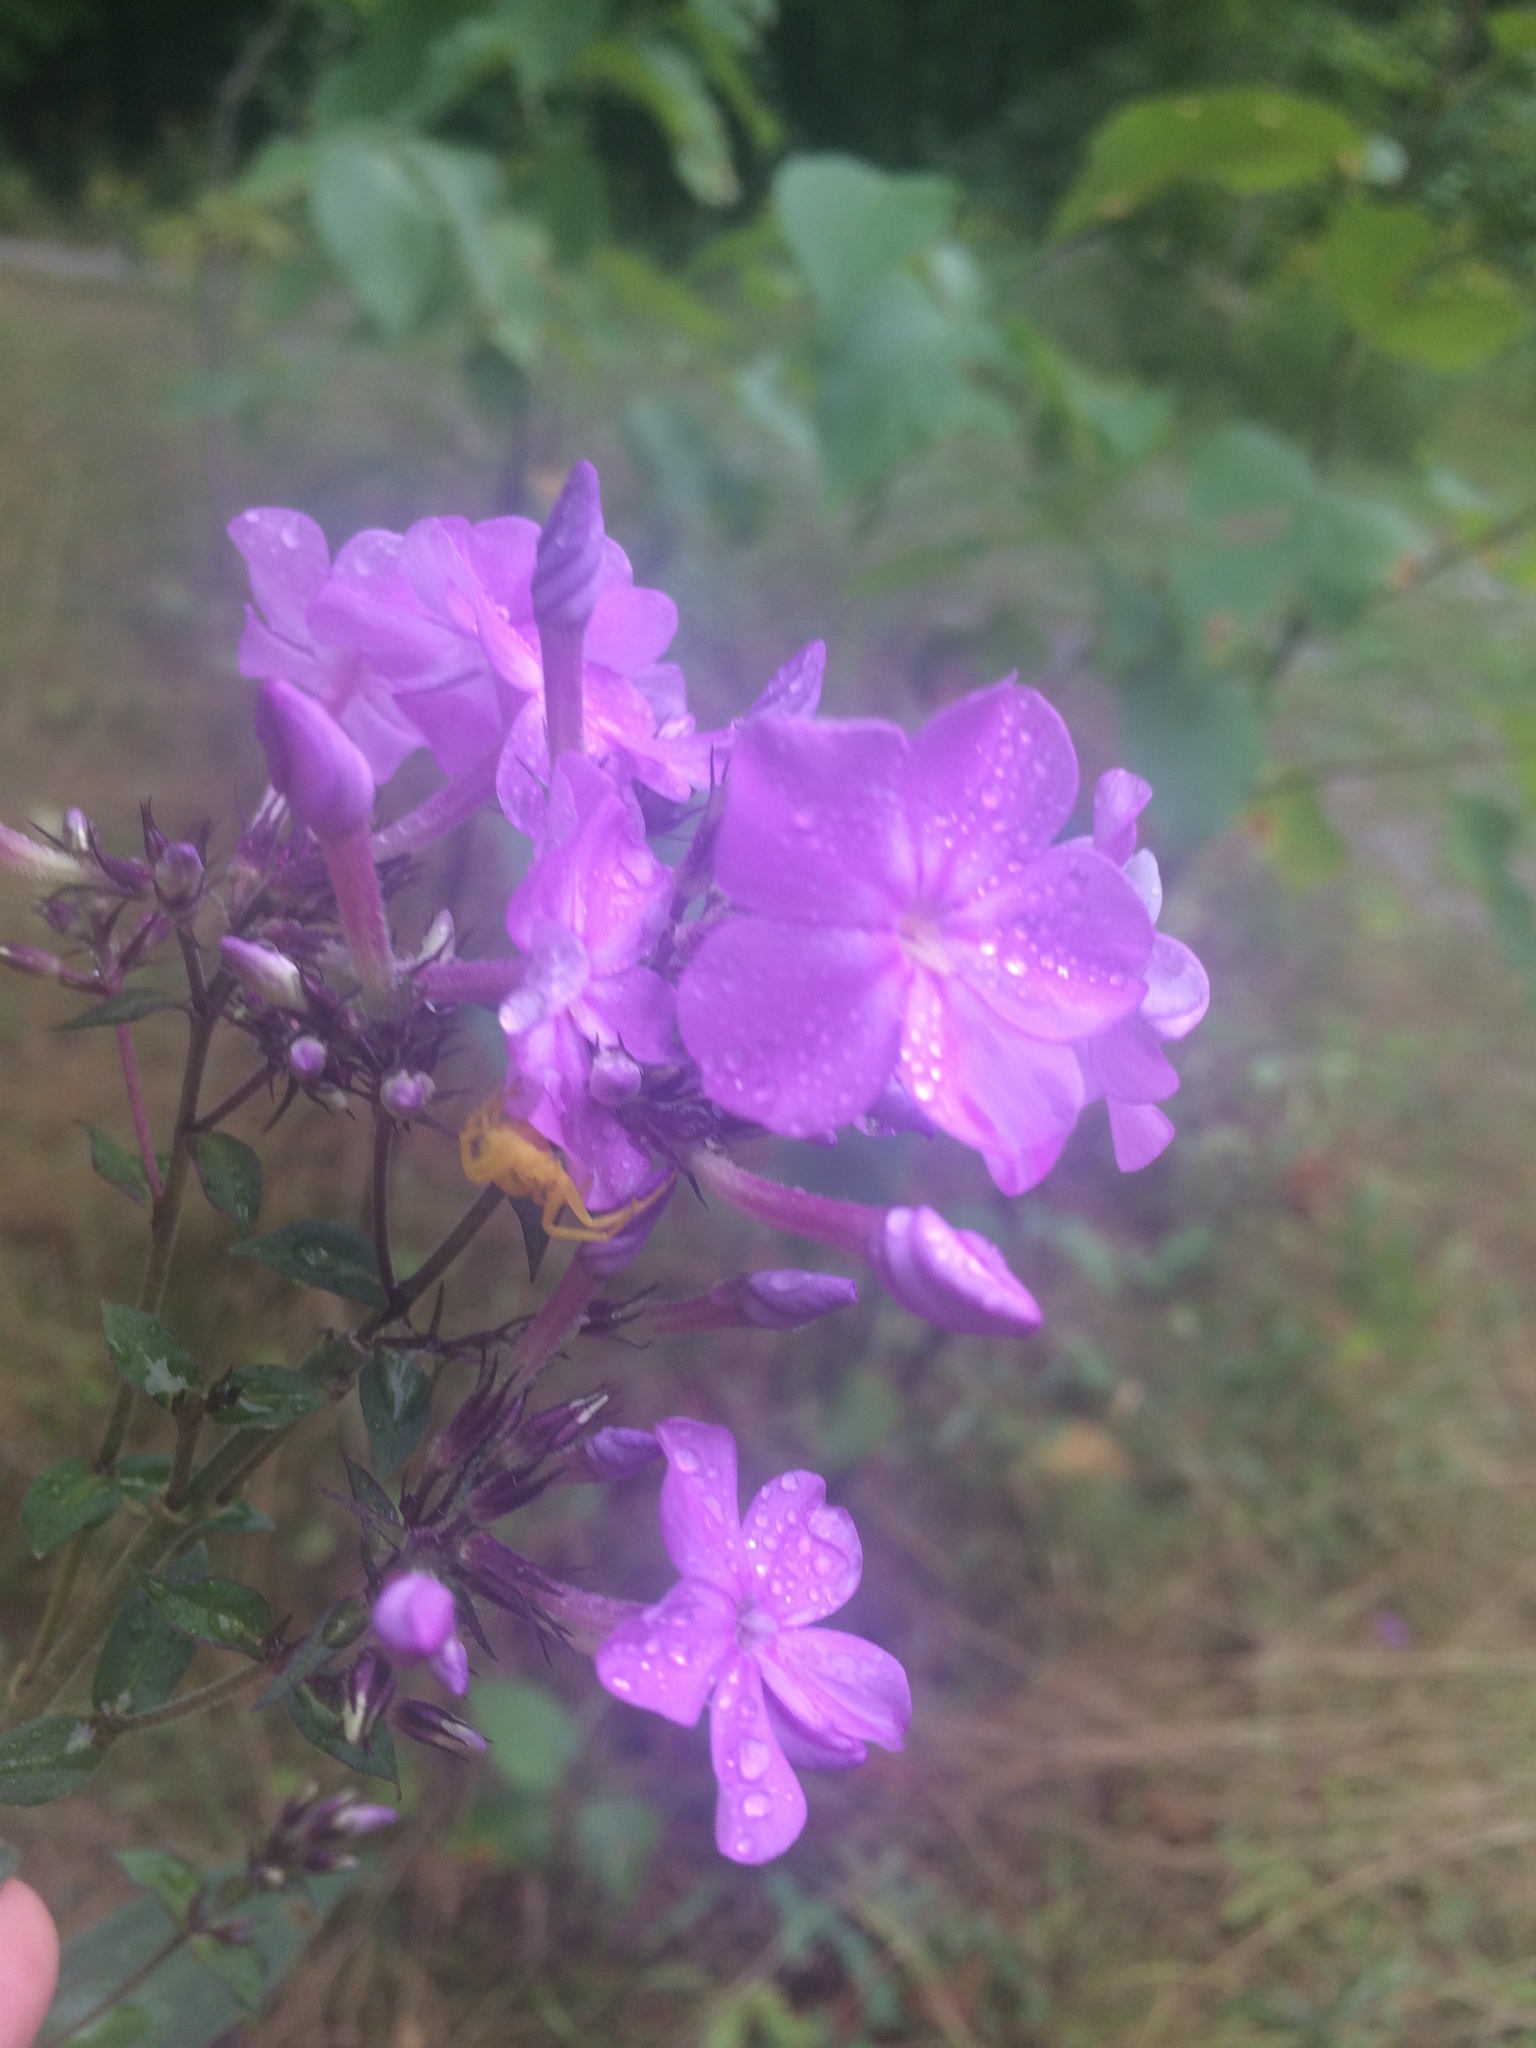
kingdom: Plantae
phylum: Tracheophyta
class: Magnoliopsida
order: Ericales
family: Polemoniaceae
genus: Phlox
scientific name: Phlox paniculata
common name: Fall phlox
